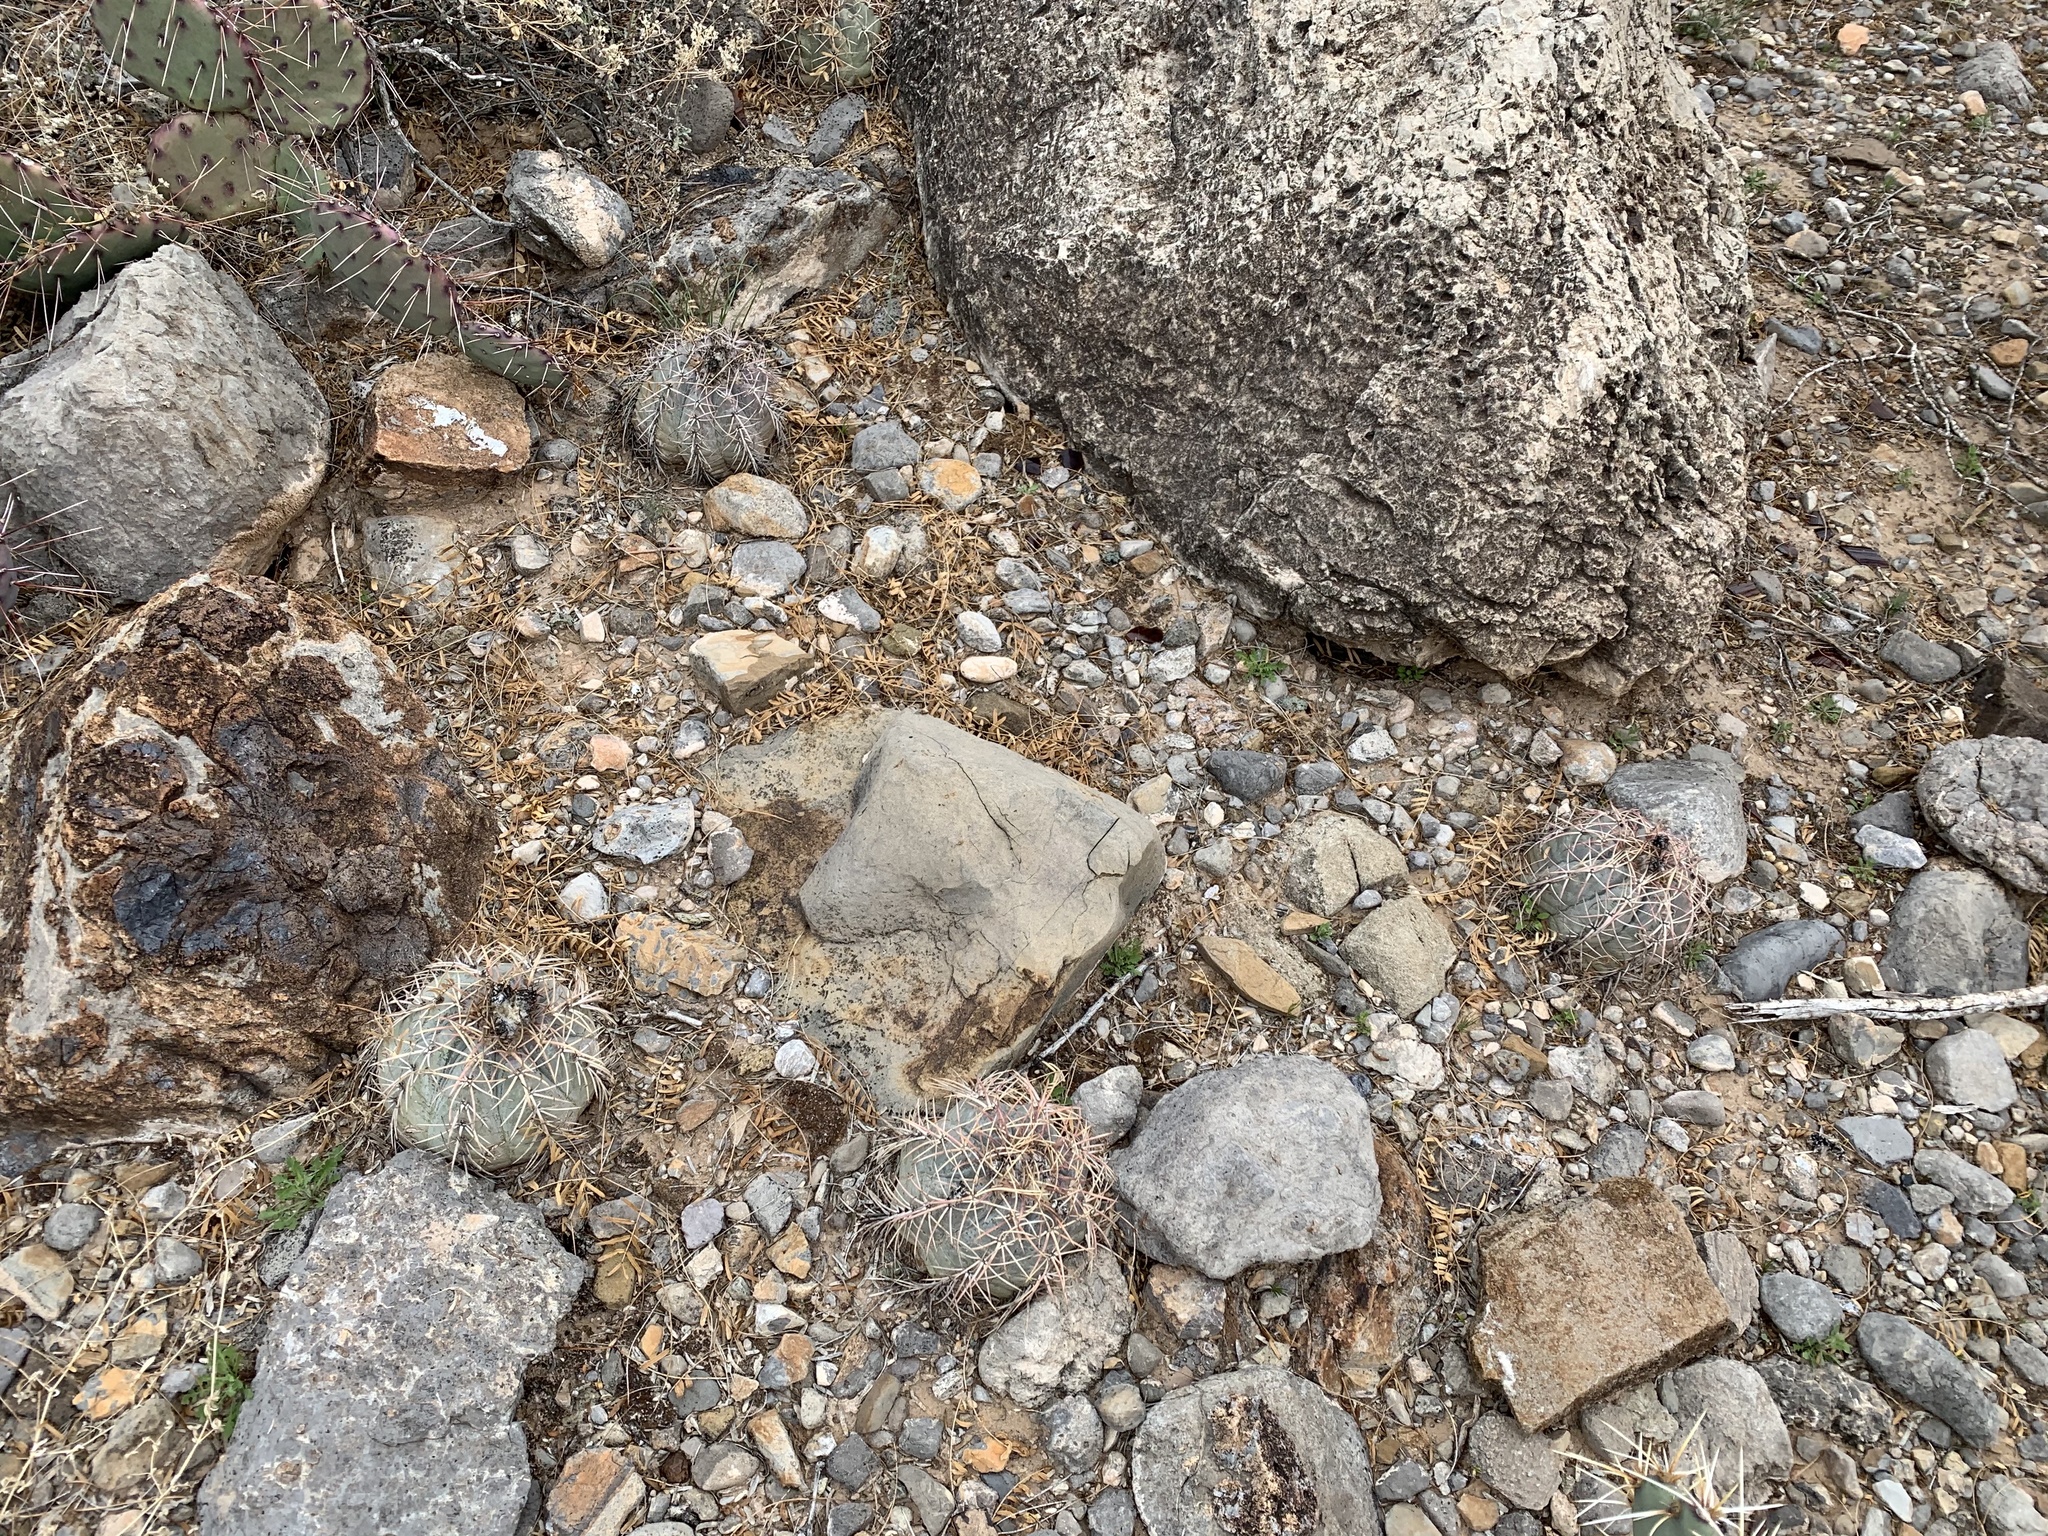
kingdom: Plantae
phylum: Tracheophyta
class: Magnoliopsida
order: Caryophyllales
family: Cactaceae
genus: Echinocactus
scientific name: Echinocactus horizonthalonius
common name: Devilshead
